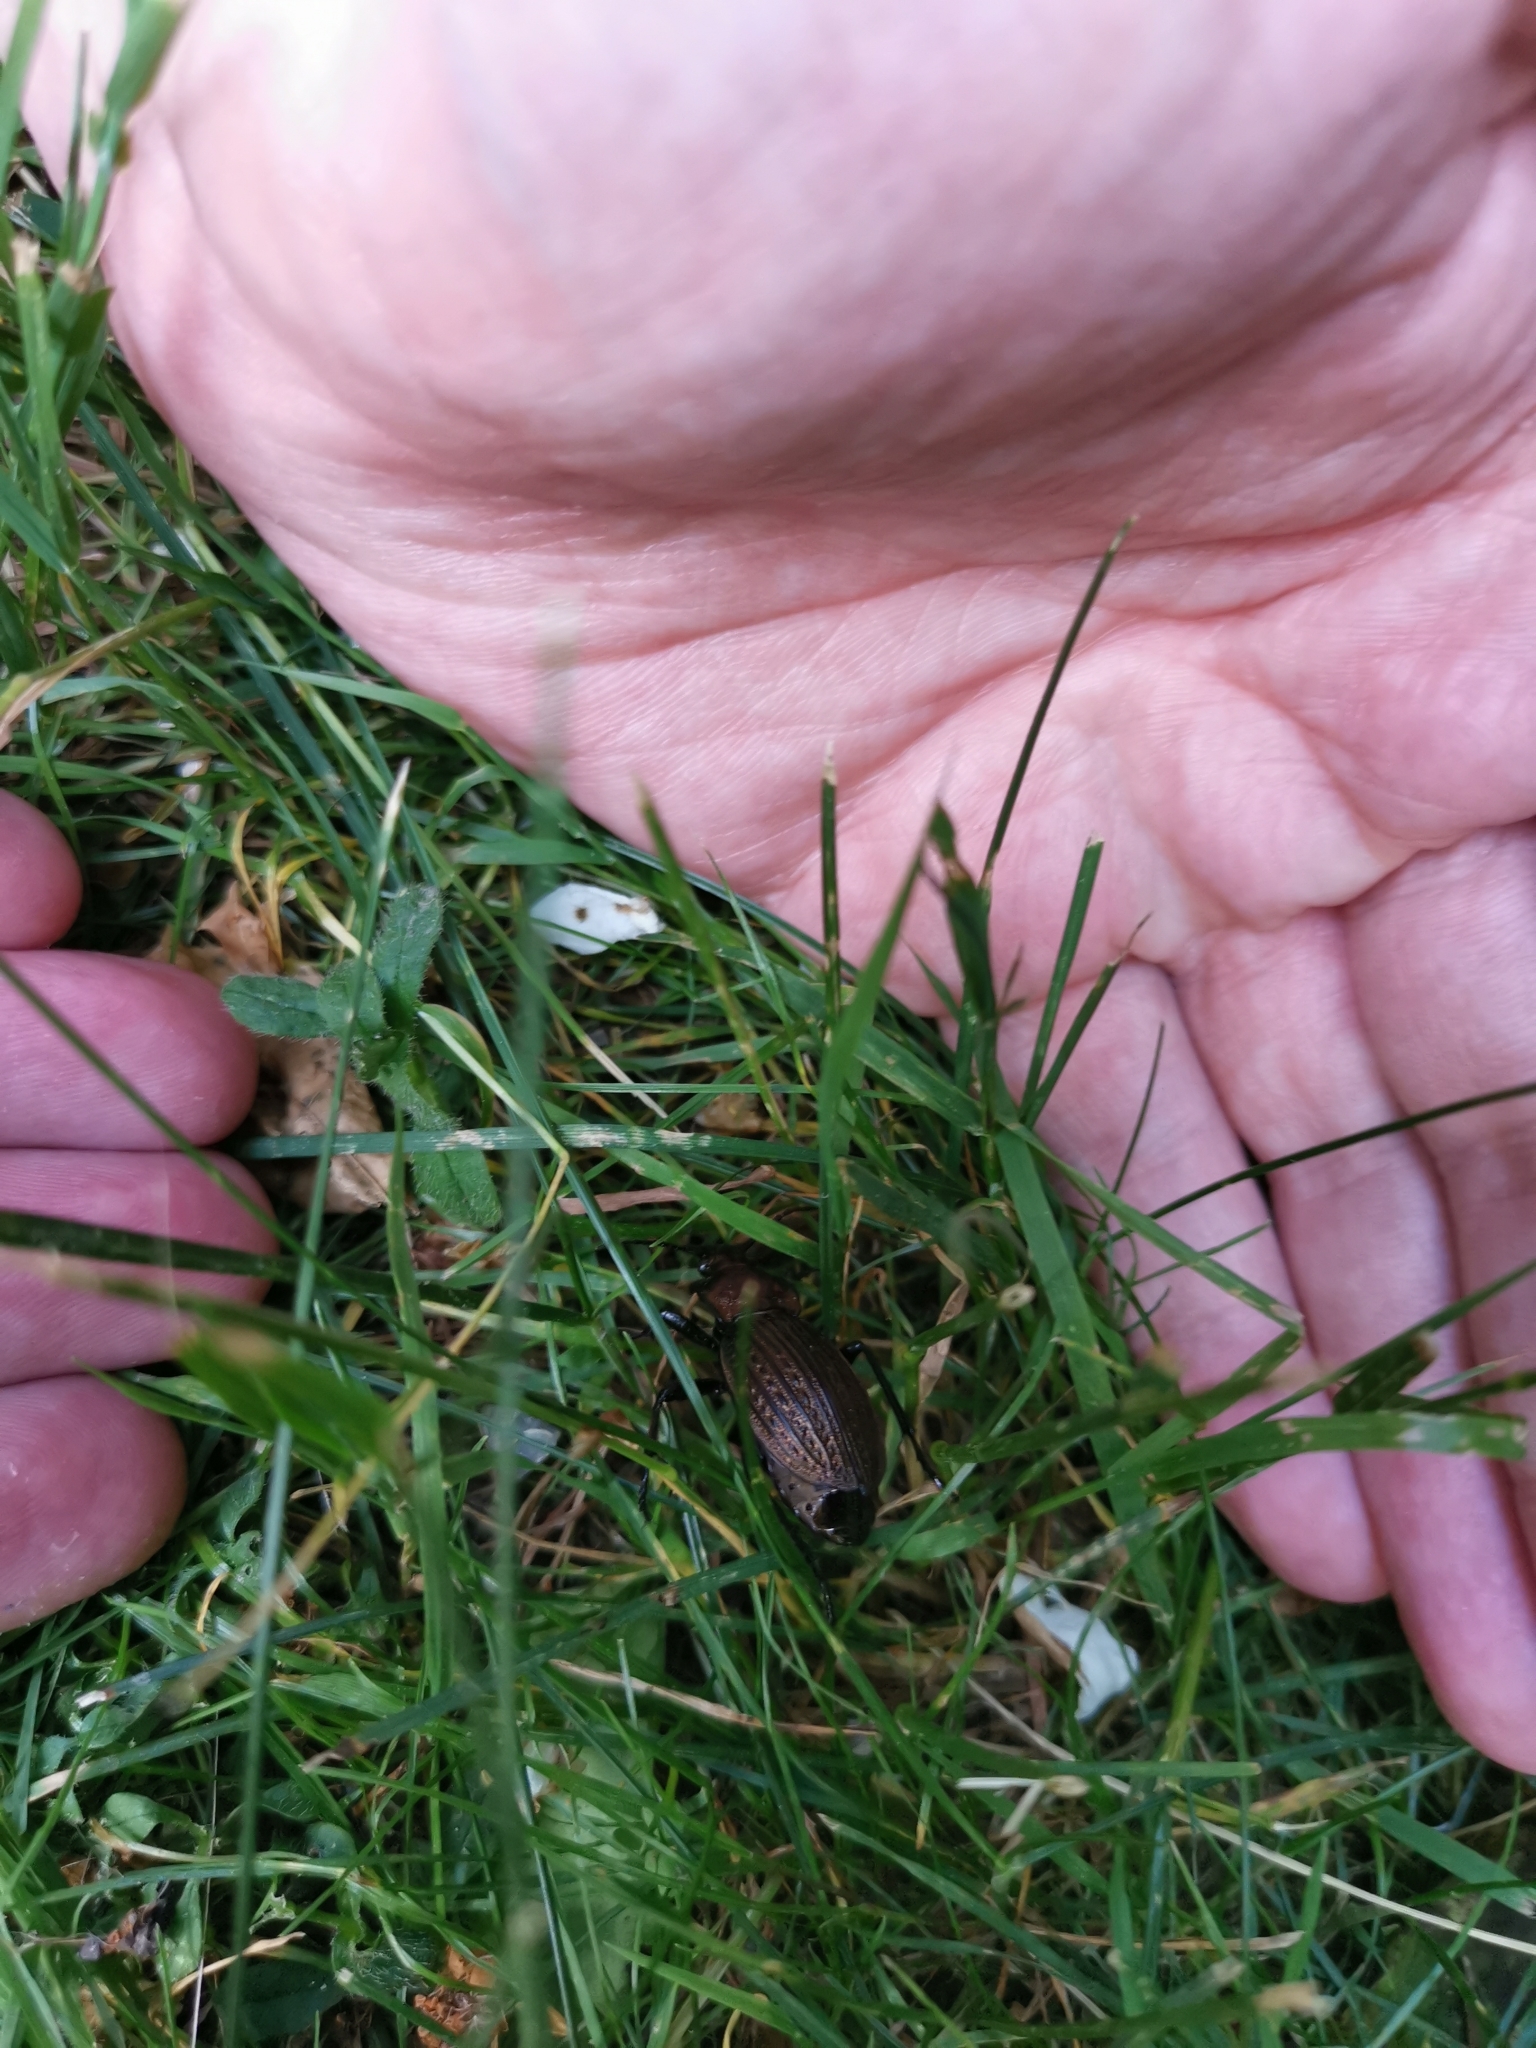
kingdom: Animalia
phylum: Arthropoda
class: Insecta
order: Coleoptera
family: Carabidae
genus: Carabus
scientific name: Carabus ulrichii
